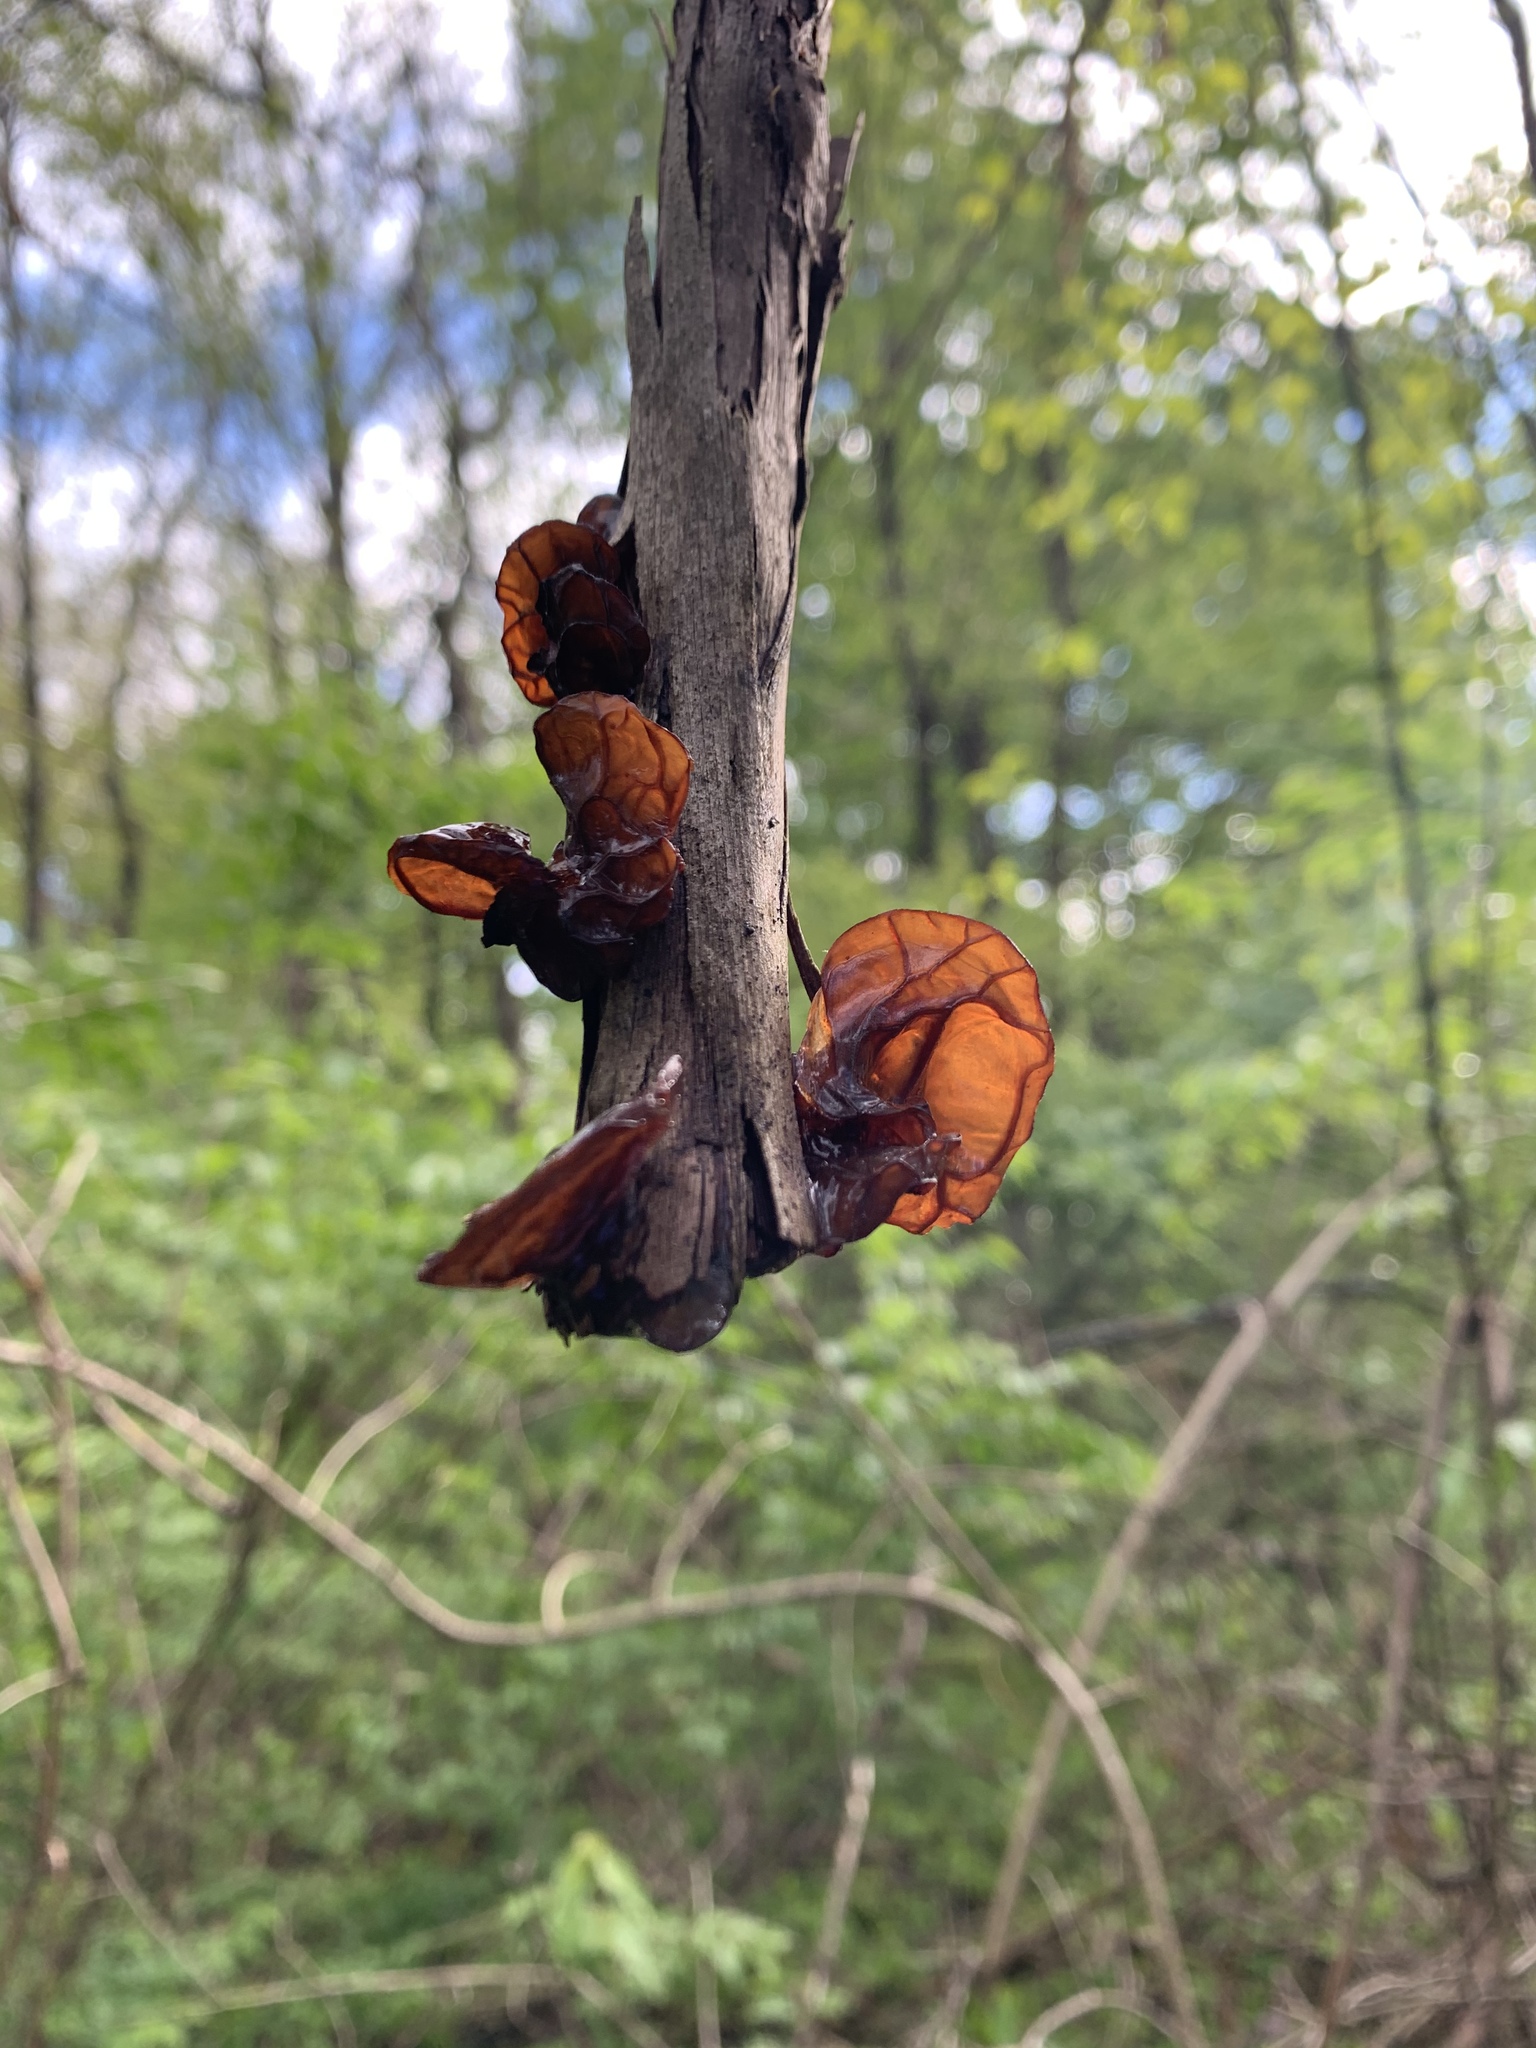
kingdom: Fungi
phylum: Basidiomycota
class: Agaricomycetes
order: Auriculariales
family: Auriculariaceae
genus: Auricularia
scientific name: Auricularia
